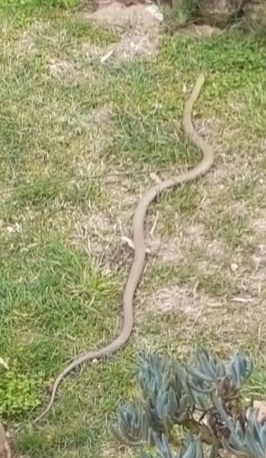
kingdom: Animalia
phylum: Chordata
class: Squamata
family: Elapidae
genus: Pseudonaja
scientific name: Pseudonaja textilis
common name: Eastern brown snake
